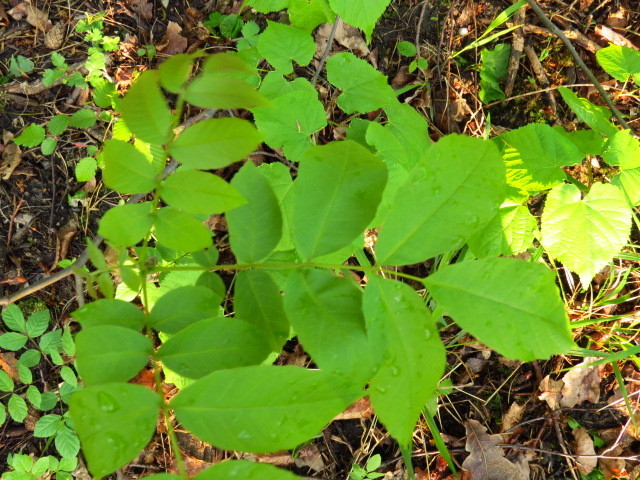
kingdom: Plantae
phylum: Tracheophyta
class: Magnoliopsida
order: Fagales
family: Juglandaceae
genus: Juglans
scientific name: Juglans regia
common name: Walnut
